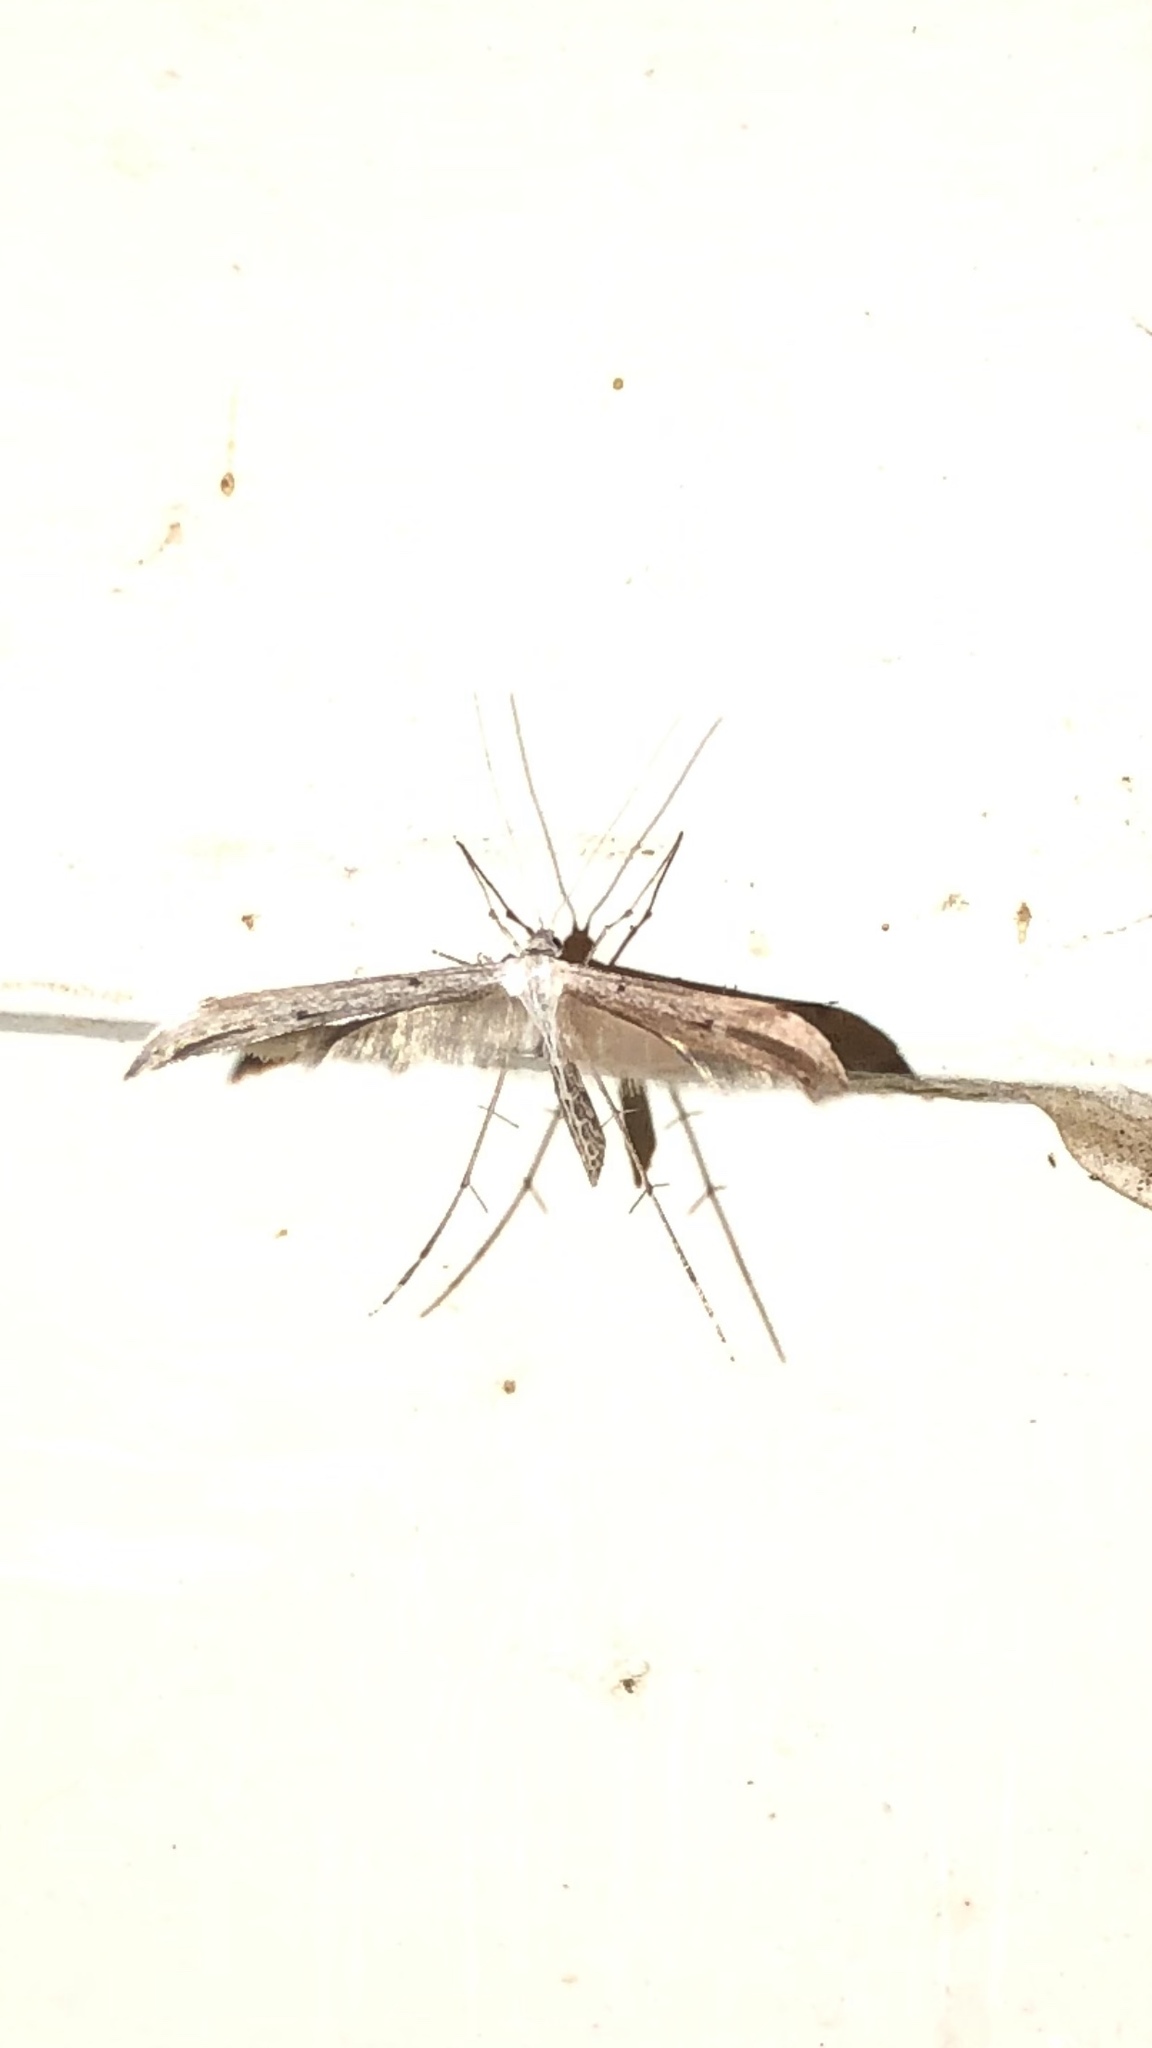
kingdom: Animalia
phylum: Arthropoda
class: Insecta
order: Lepidoptera
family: Pterophoridae
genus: Emmelina
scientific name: Emmelina monodactyla
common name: Common plume
